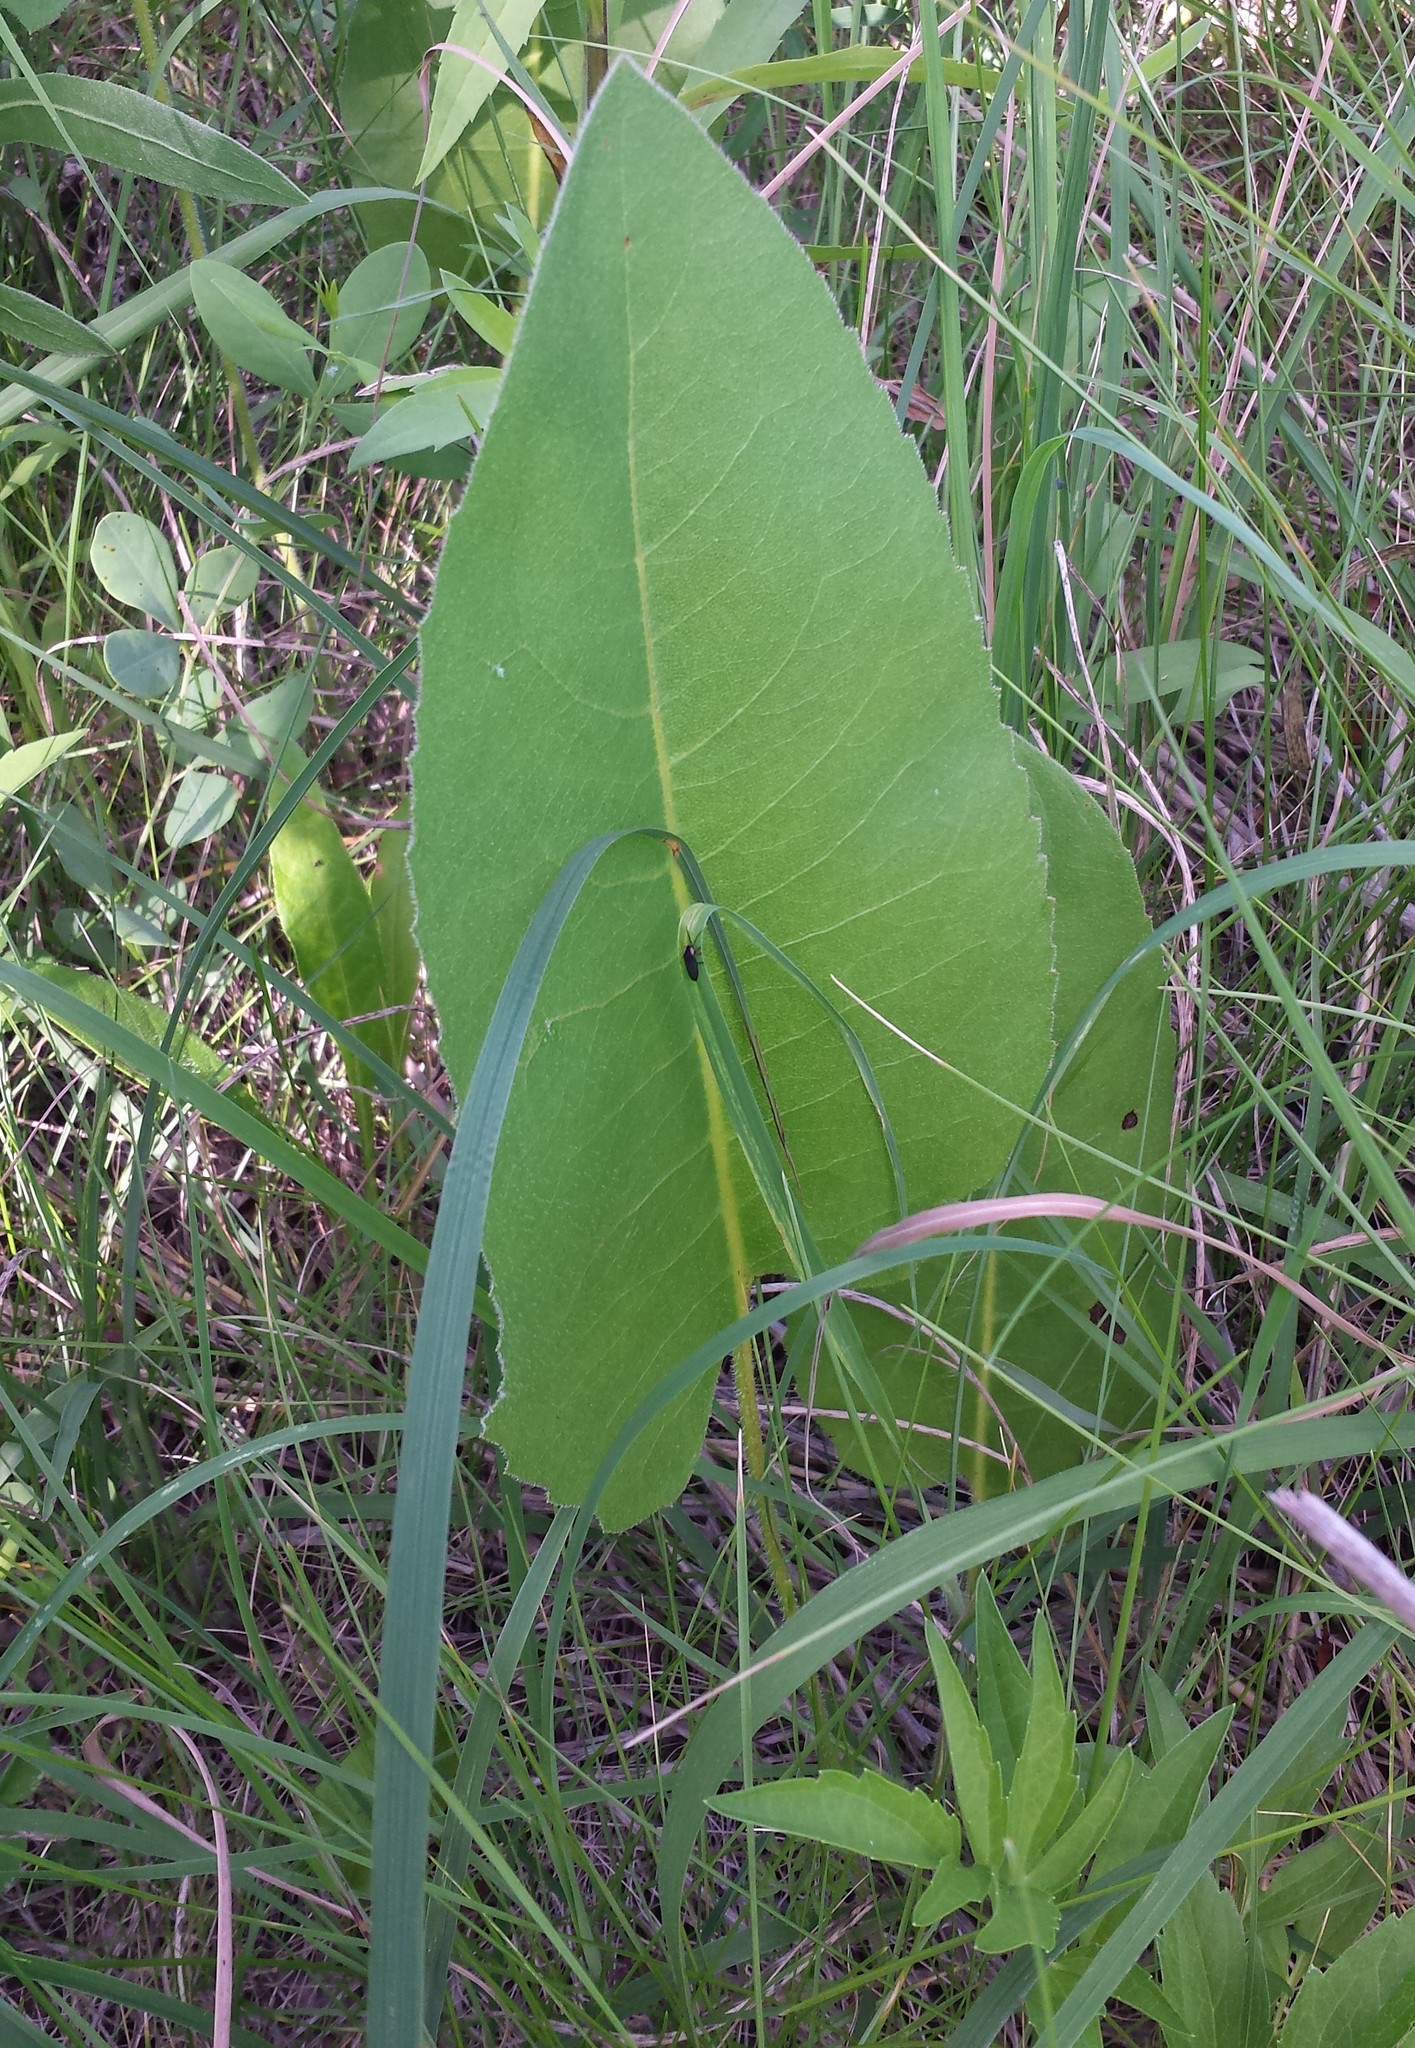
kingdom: Plantae
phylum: Tracheophyta
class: Magnoliopsida
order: Asterales
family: Asteraceae
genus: Silphium
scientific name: Silphium terebinthinaceum
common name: Basal-leaf rosinweed
